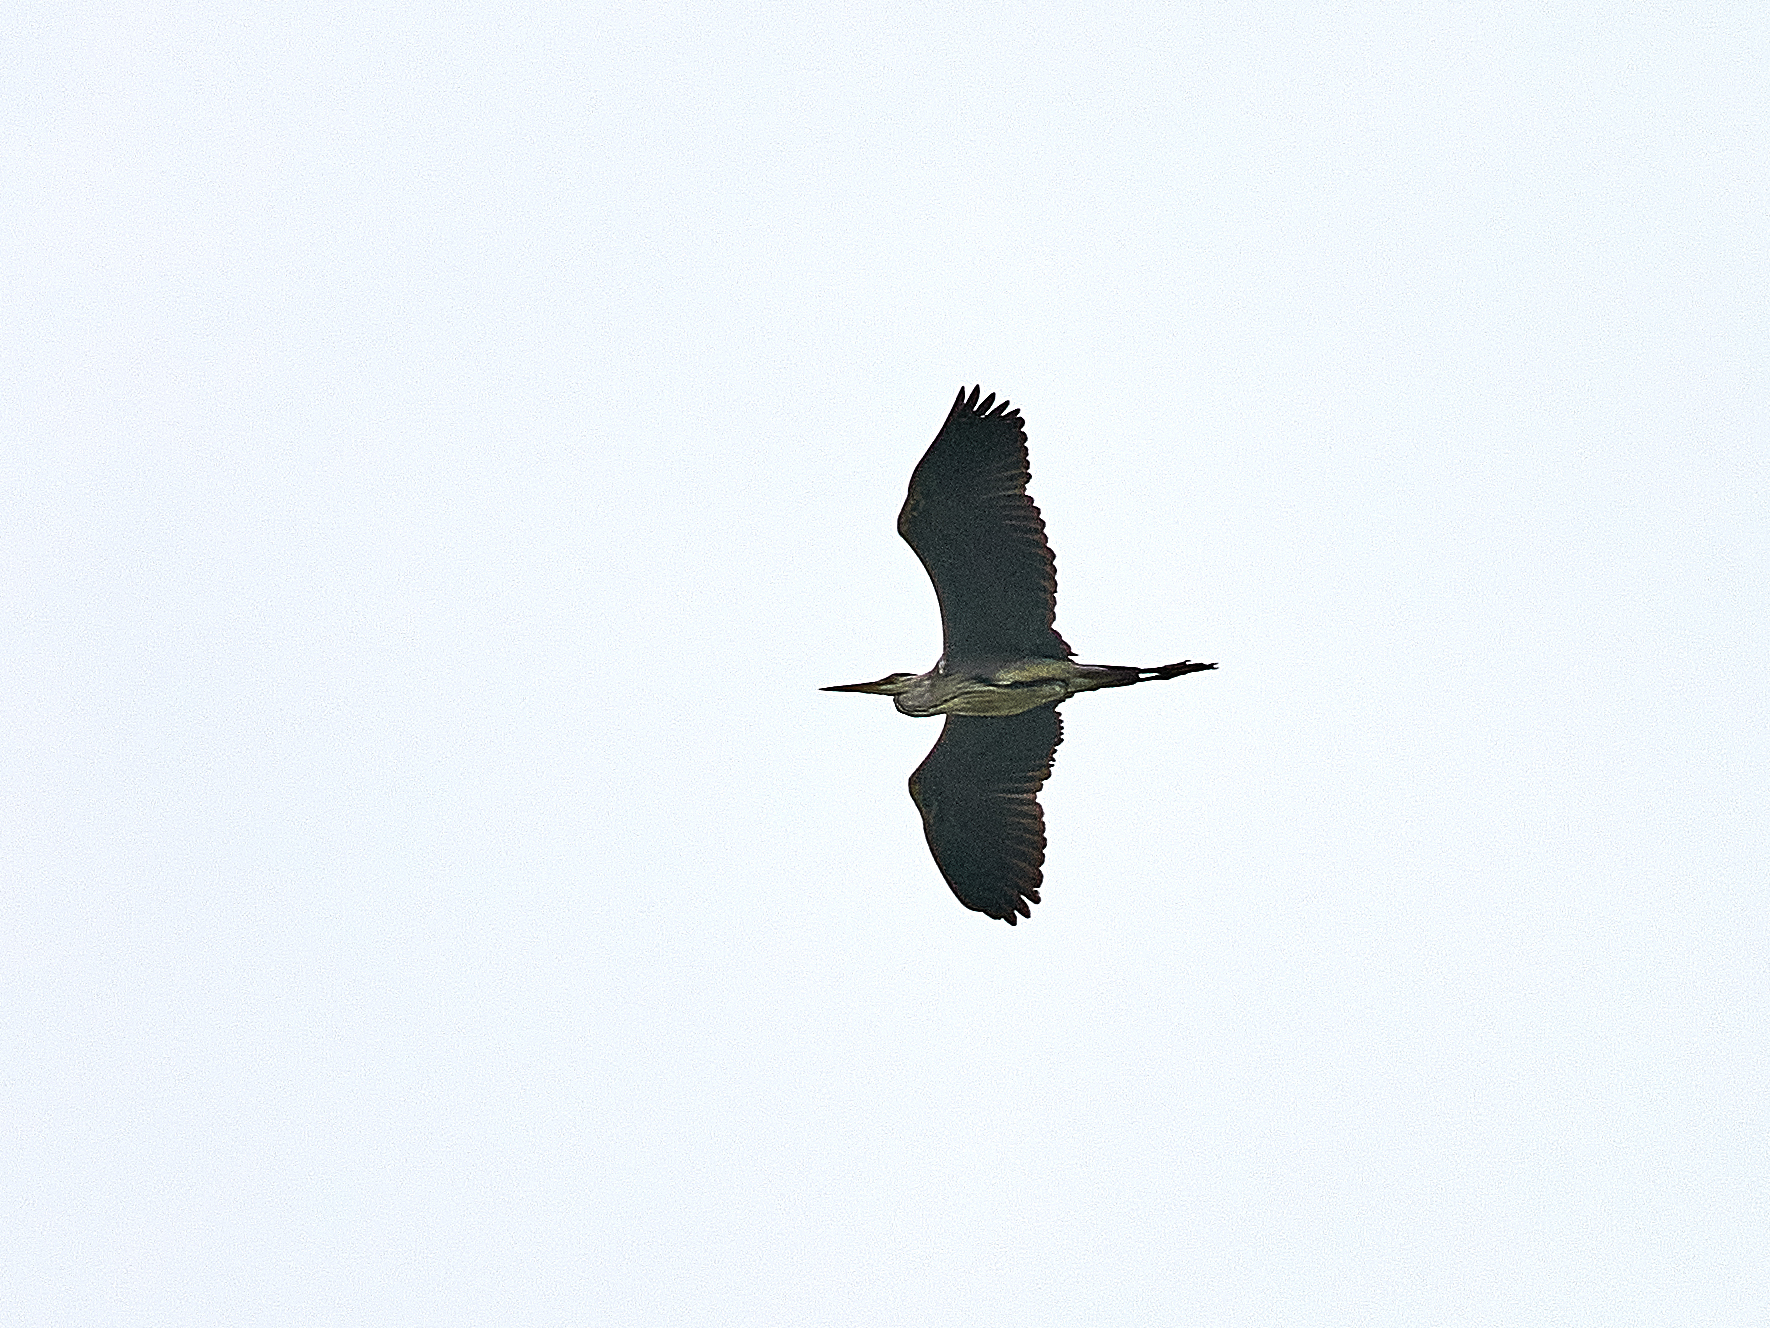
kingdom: Animalia
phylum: Chordata
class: Aves
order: Pelecaniformes
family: Ardeidae
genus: Ardea
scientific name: Ardea cinerea
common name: Grey heron
